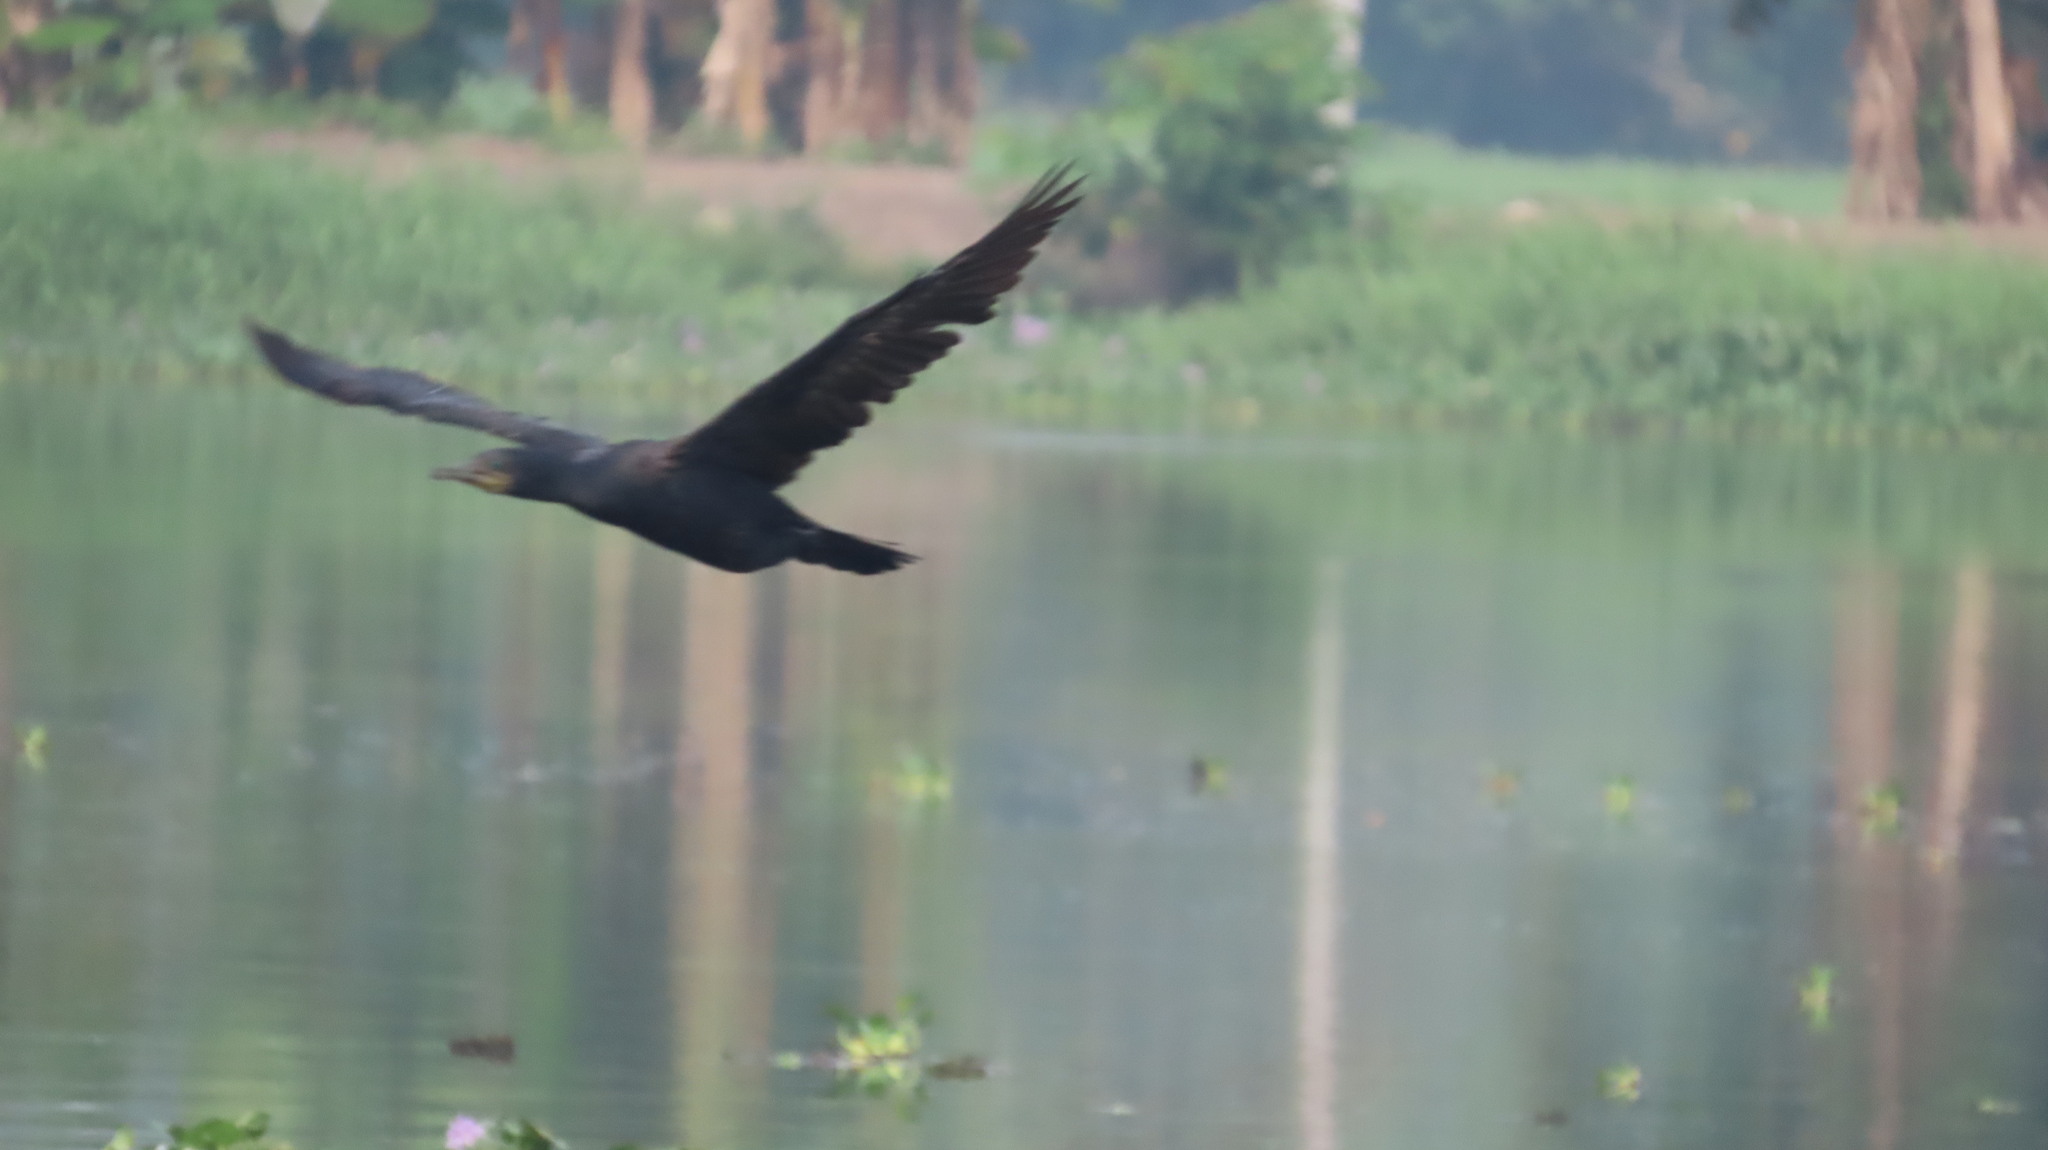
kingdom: Animalia
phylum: Chordata
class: Aves
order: Suliformes
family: Phalacrocoracidae
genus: Phalacrocorax
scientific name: Phalacrocorax fuscicollis
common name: Indian cormorant
